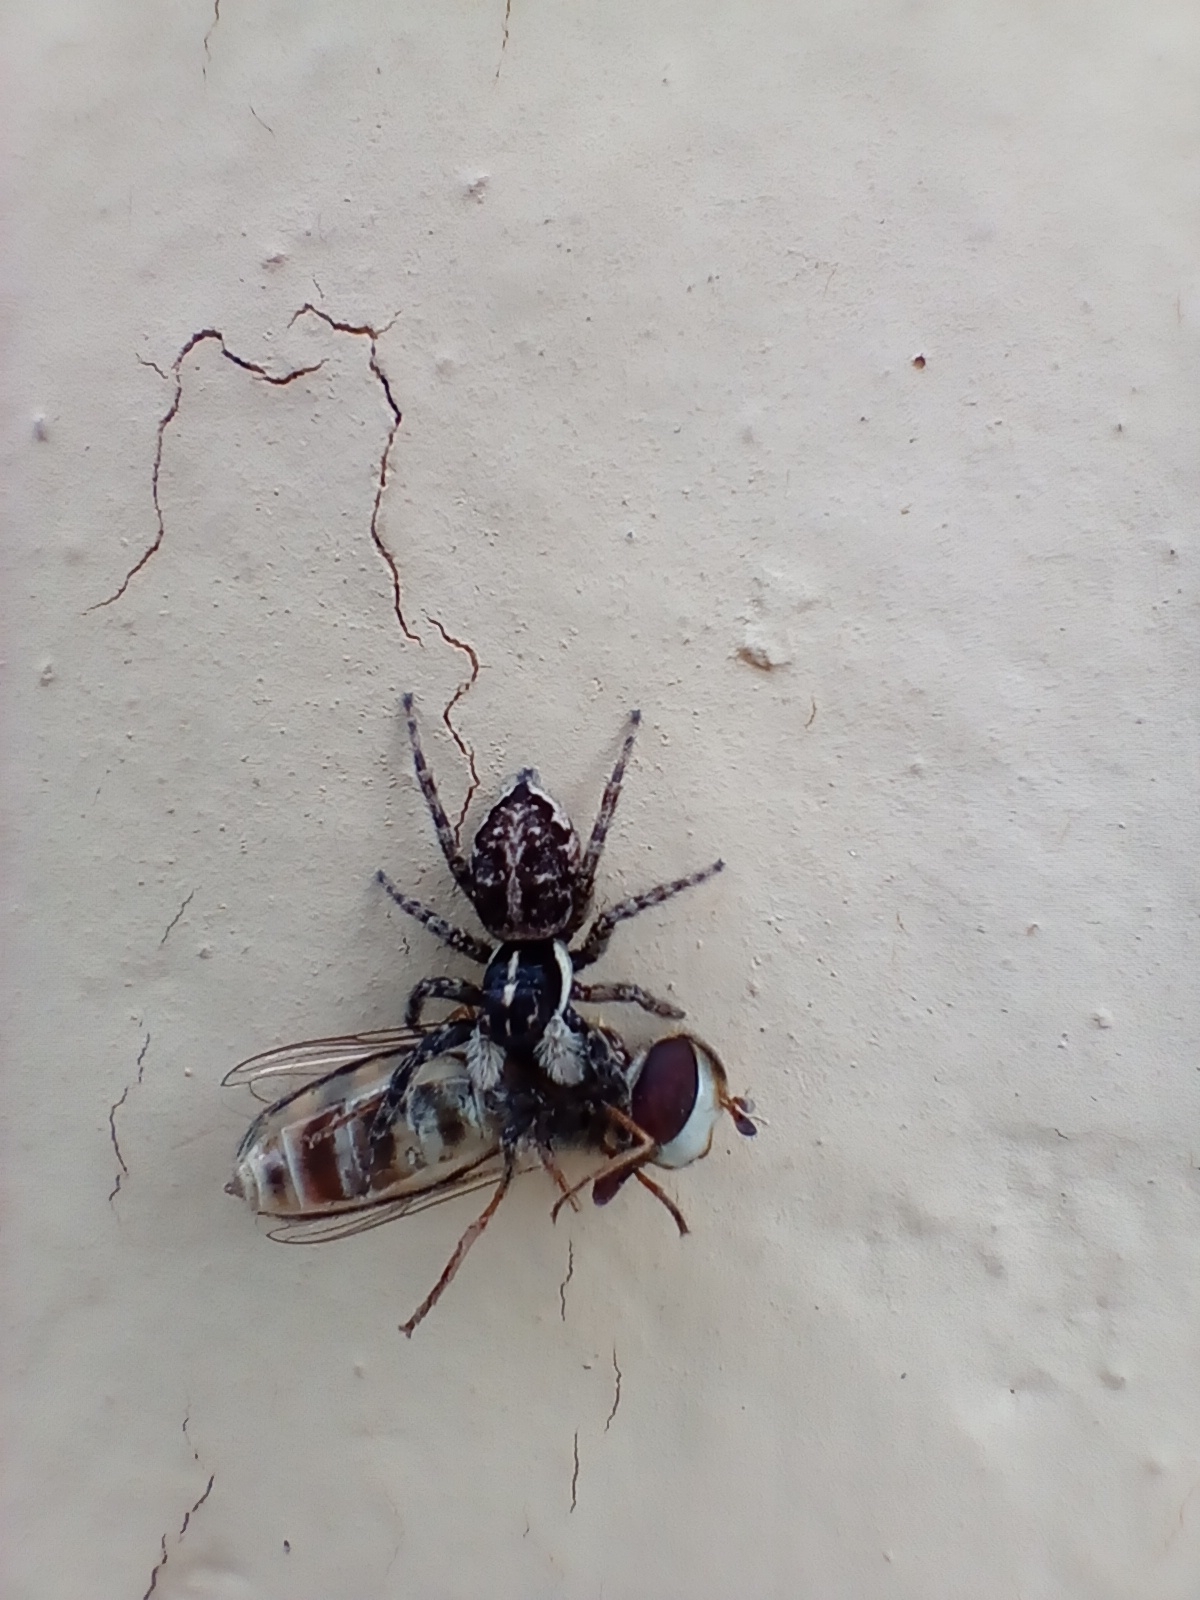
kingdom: Animalia
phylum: Arthropoda
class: Arachnida
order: Araneae
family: Salticidae
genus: Menemerus
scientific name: Menemerus semilimbatus
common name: Jumping spider
